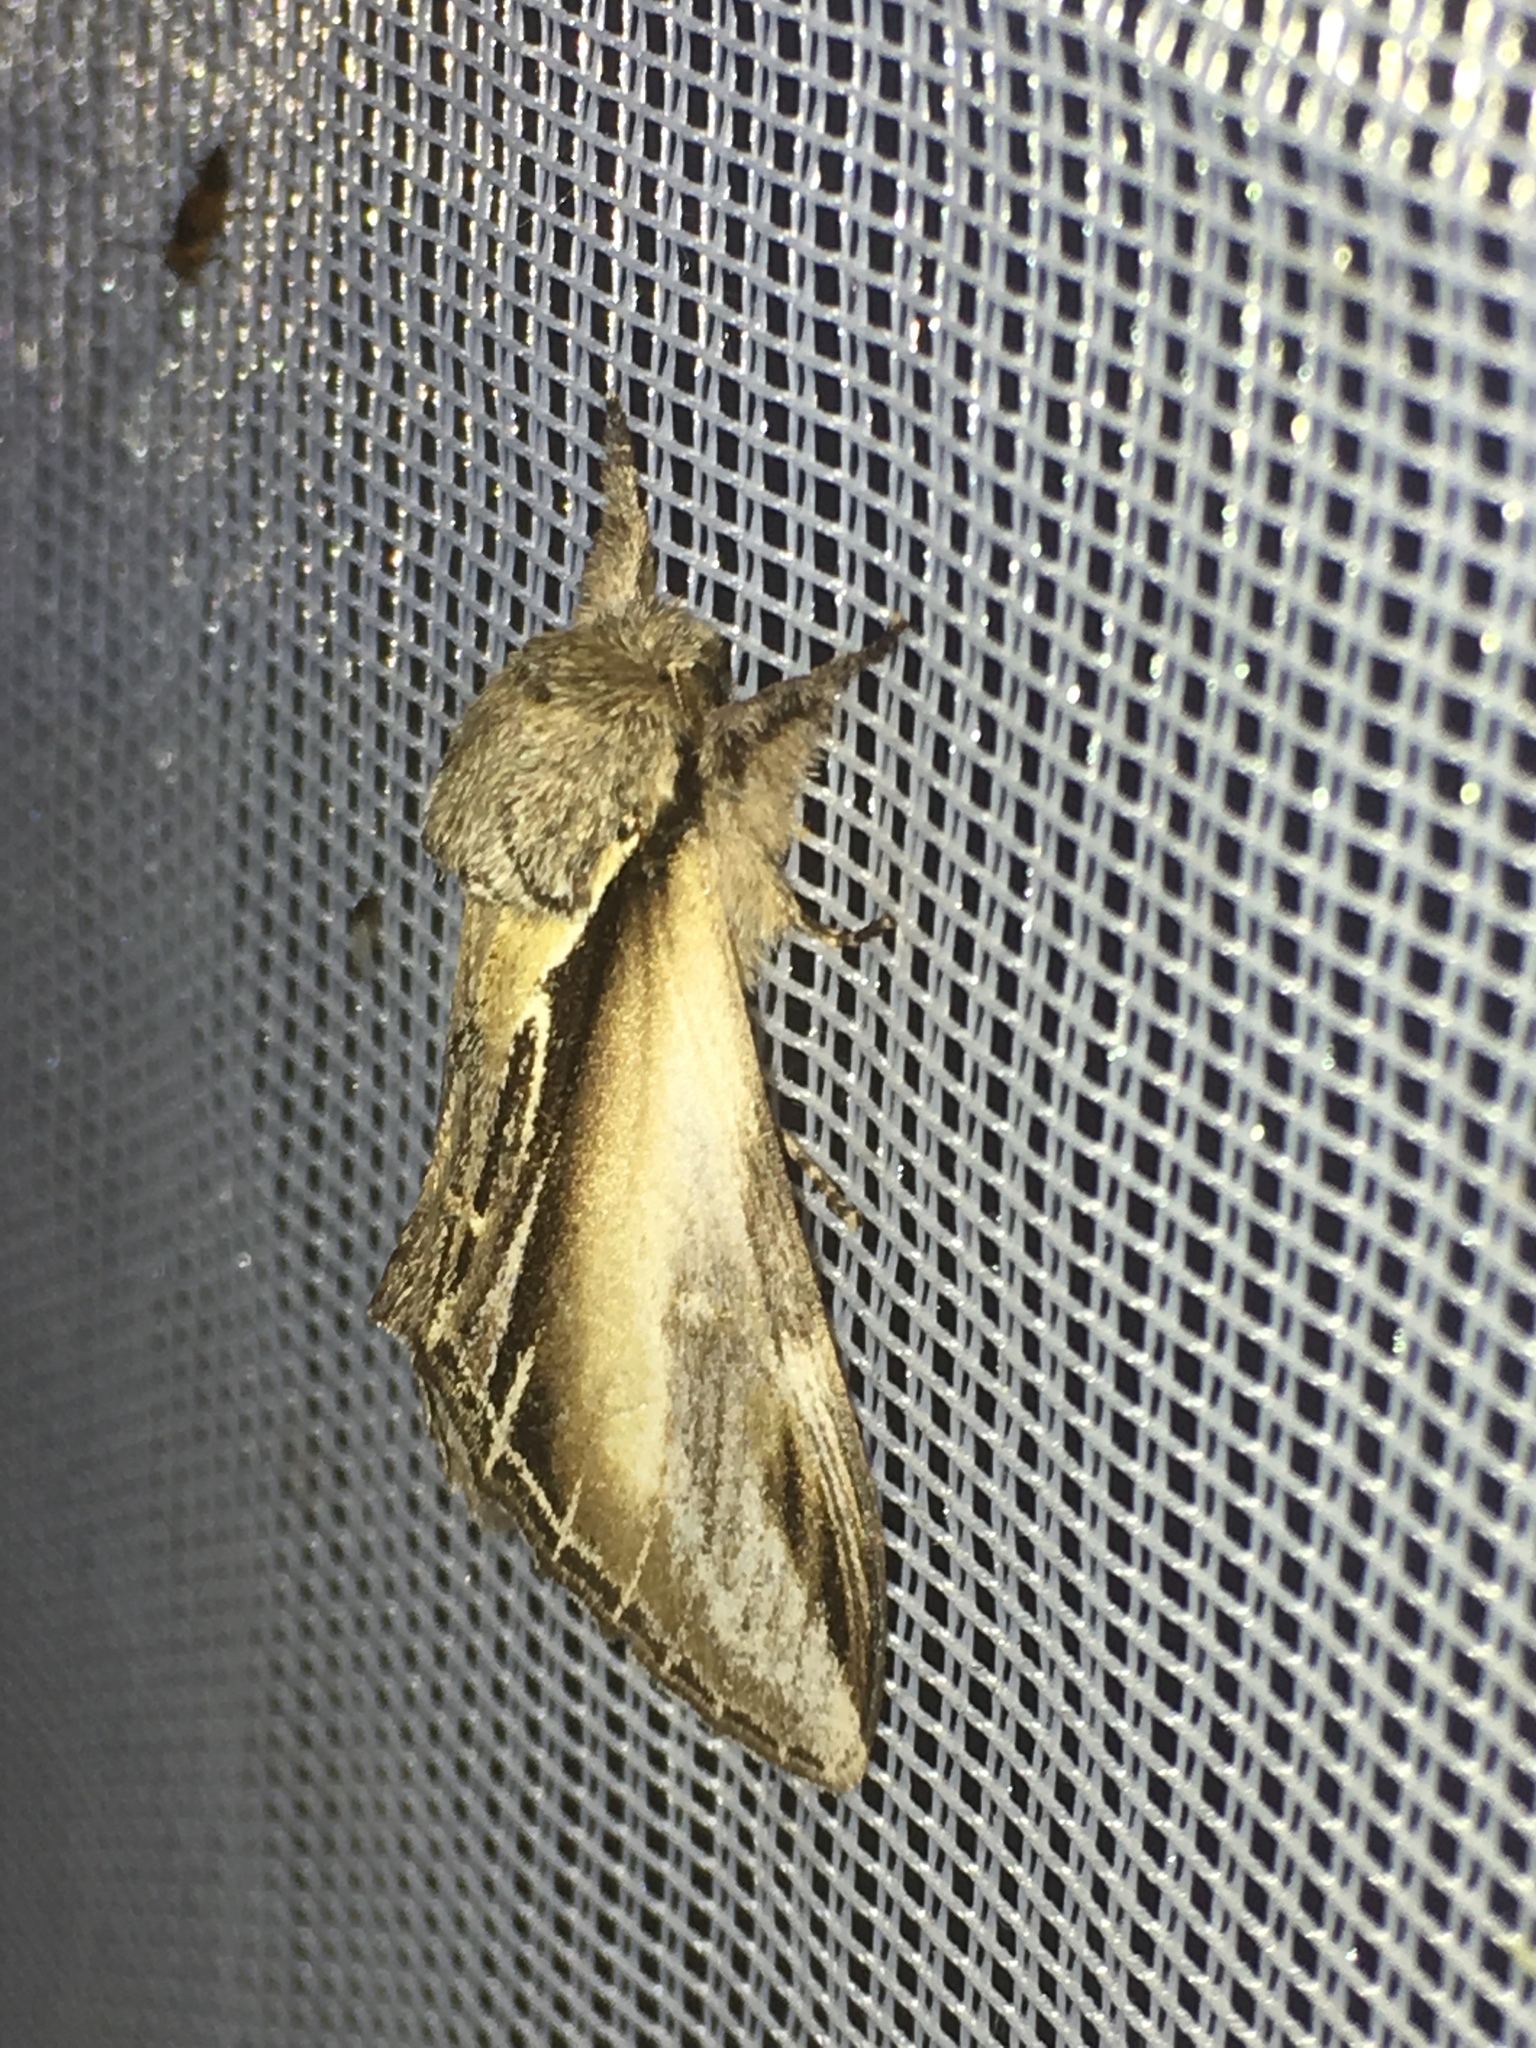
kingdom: Animalia
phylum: Arthropoda
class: Insecta
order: Lepidoptera
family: Notodontidae
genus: Pheosia
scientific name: Pheosia tremula
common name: Swallow prominent
